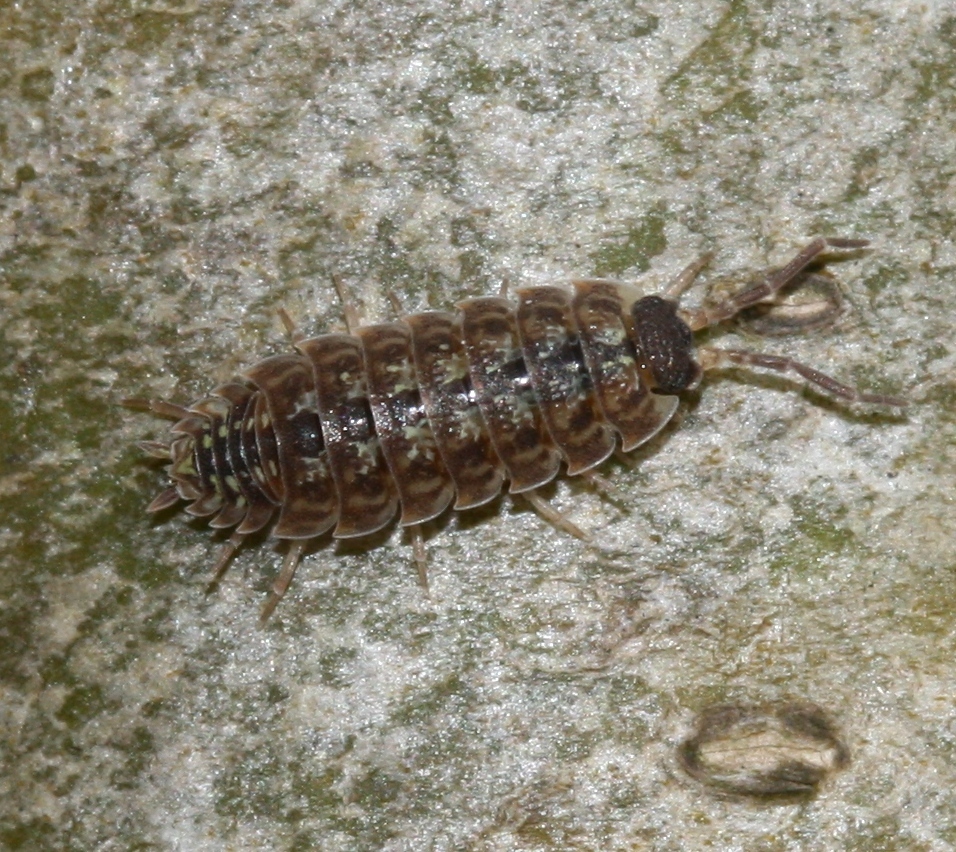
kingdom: Animalia
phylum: Arthropoda
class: Malacostraca
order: Isopoda
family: Porcellionidae
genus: Porcellio
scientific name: Porcellio spinicornis
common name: Painted woodlouse
